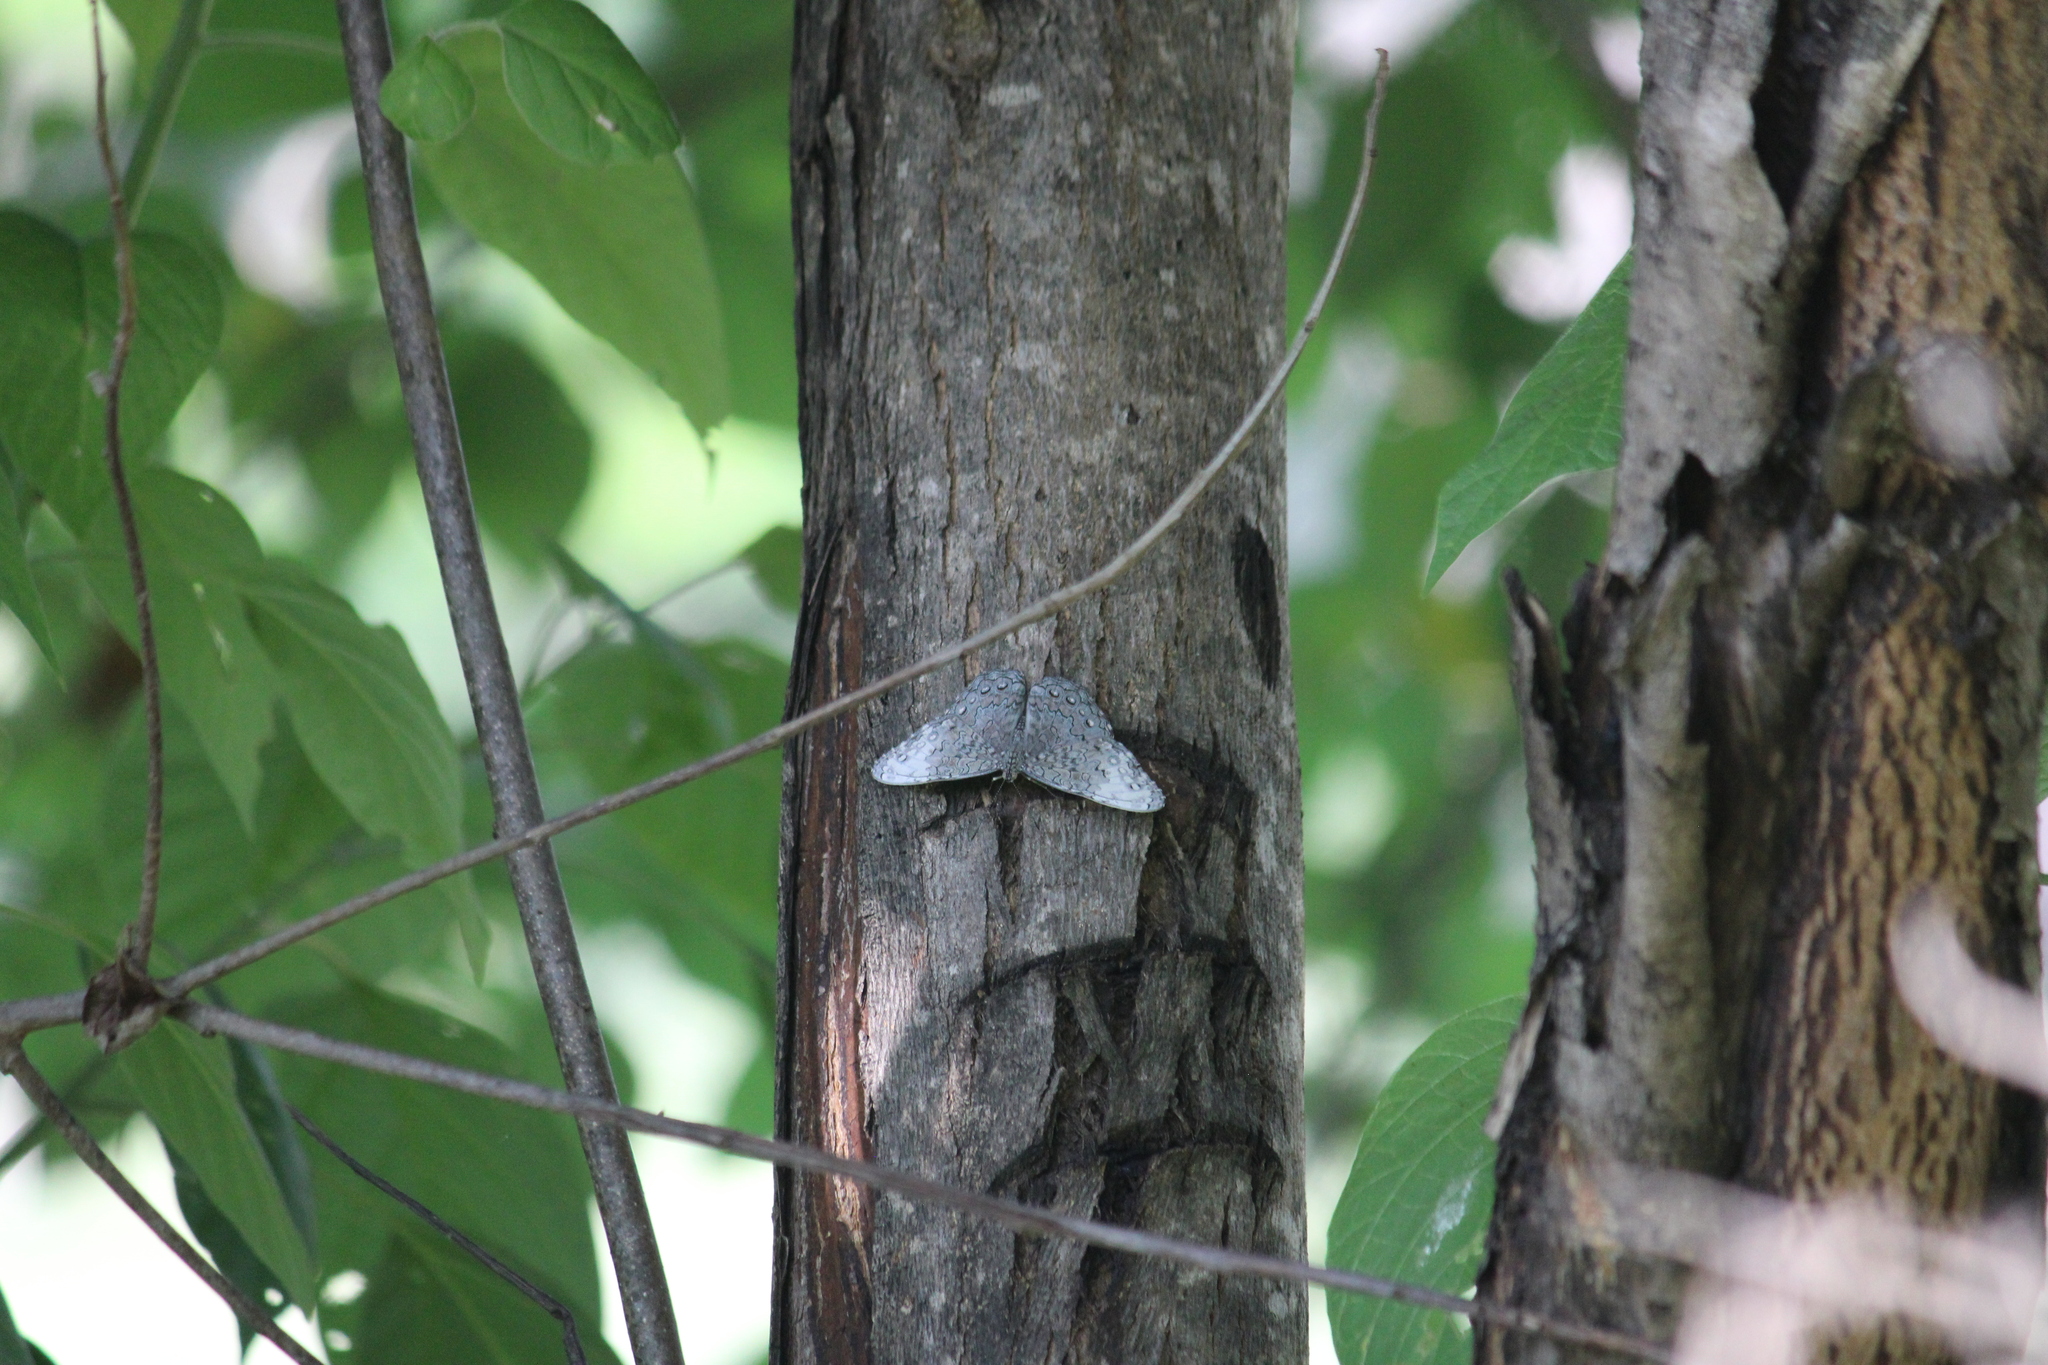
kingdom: Animalia
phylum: Arthropoda
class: Insecta
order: Lepidoptera
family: Nymphalidae
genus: Hamadryas
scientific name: Hamadryas glauconome
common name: Glaucous cracker
